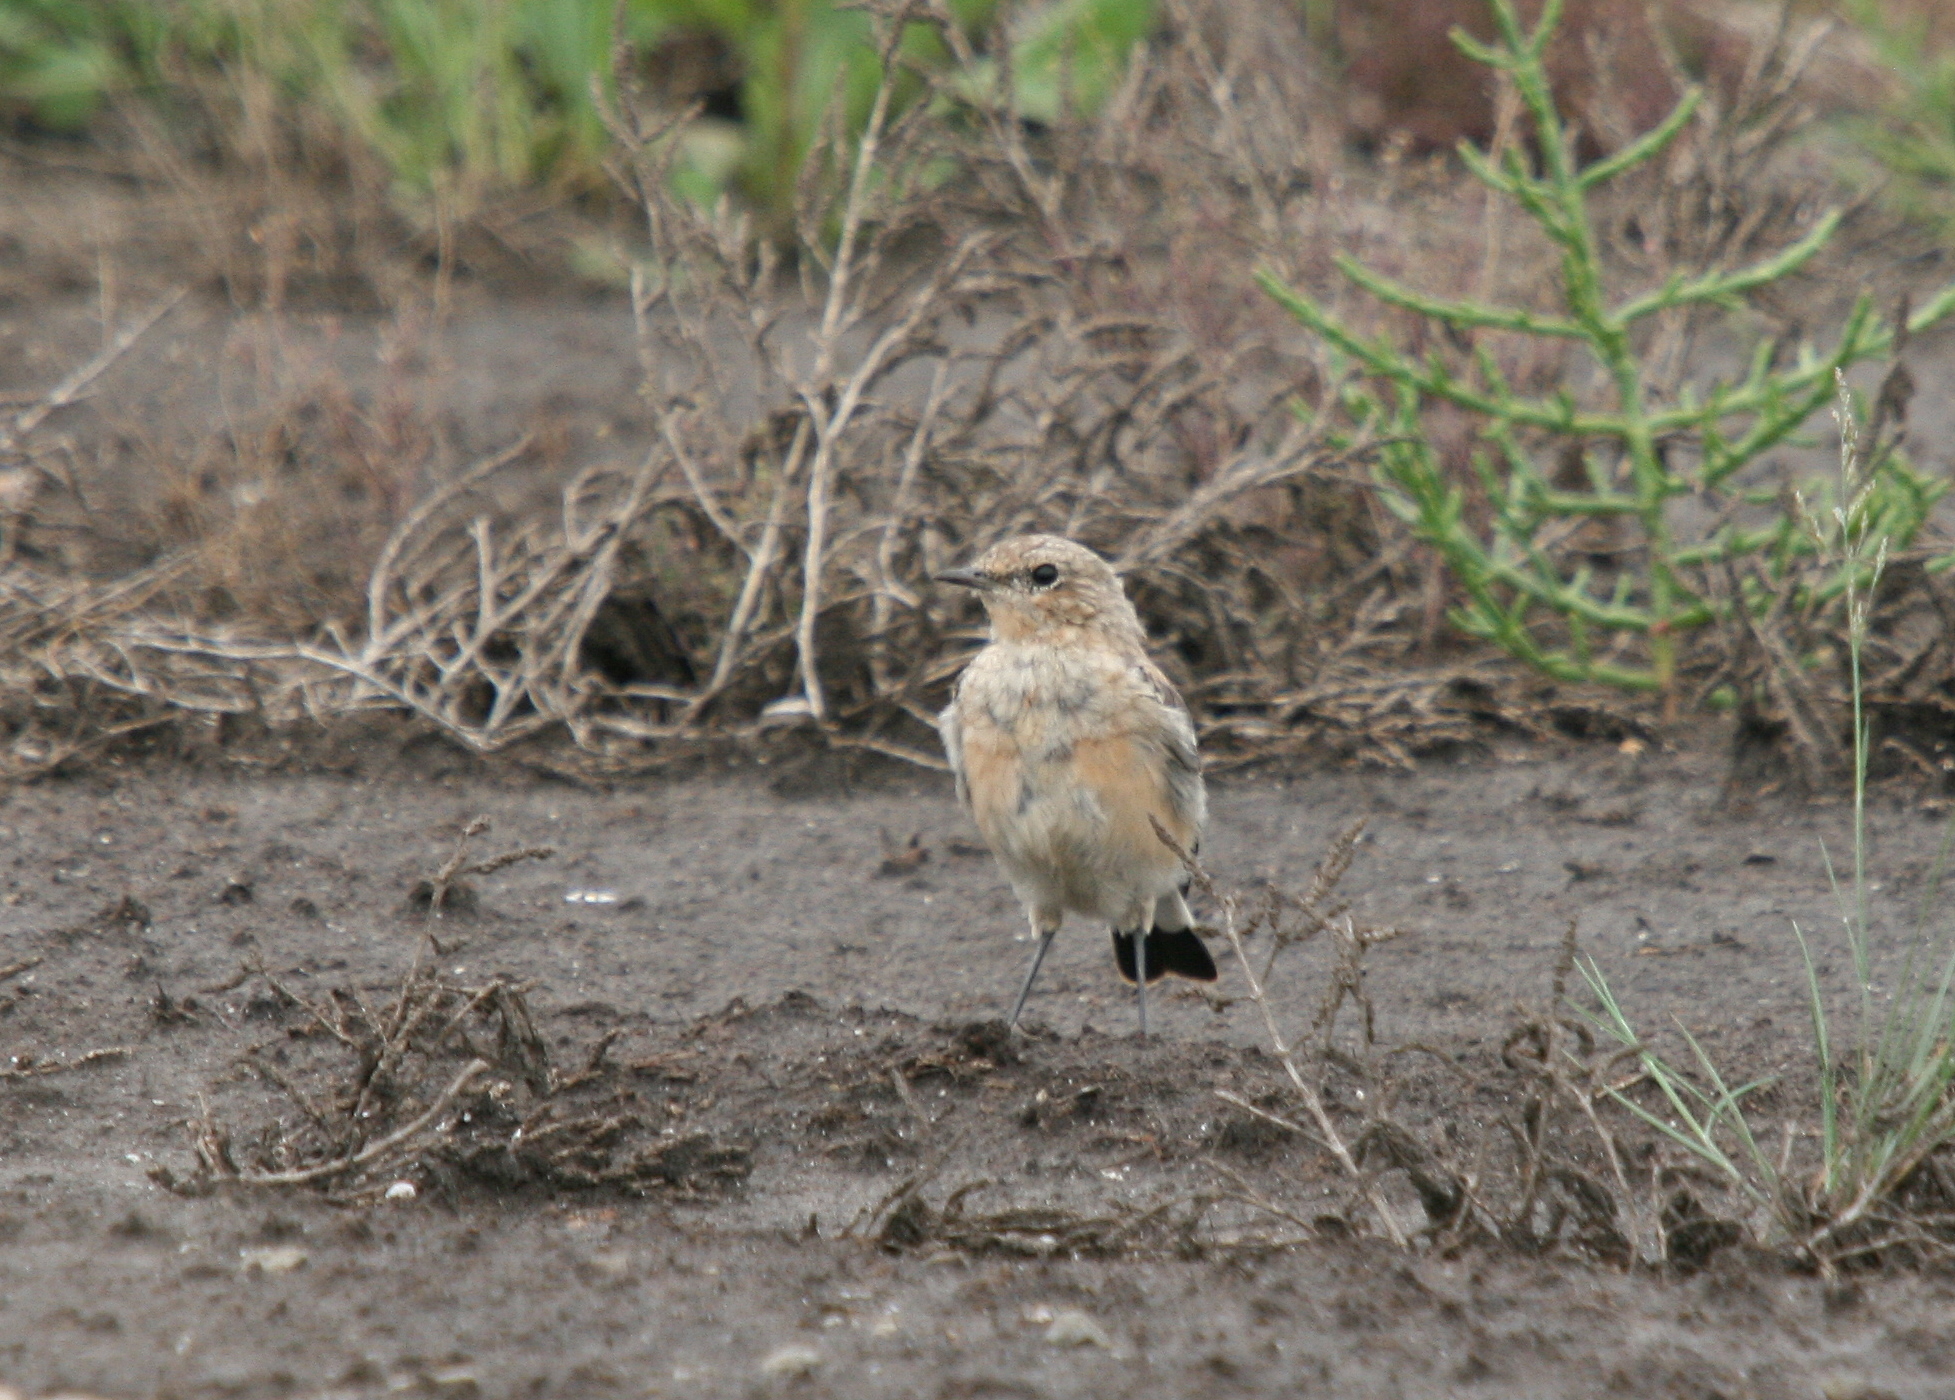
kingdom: Animalia
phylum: Chordata
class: Aves
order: Passeriformes
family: Muscicapidae
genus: Oenanthe
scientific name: Oenanthe oenanthe
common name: Northern wheatear
